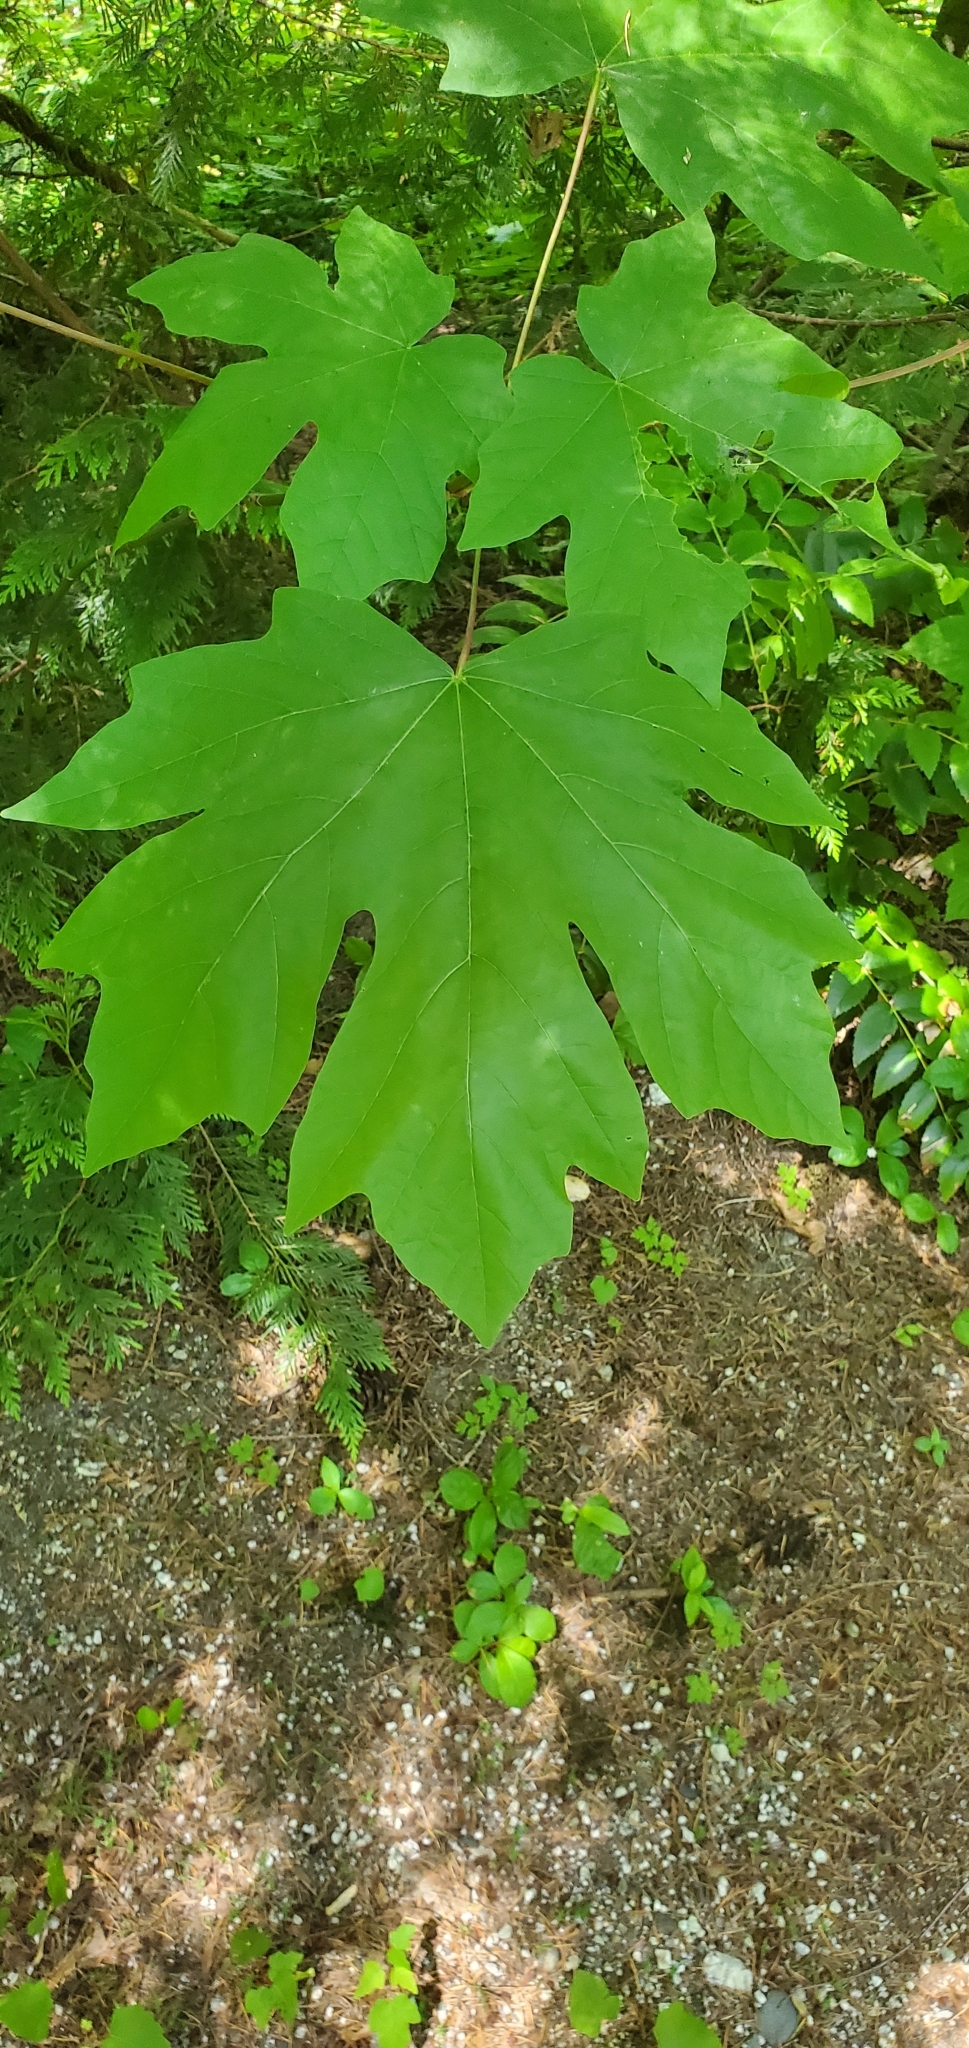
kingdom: Plantae
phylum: Tracheophyta
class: Magnoliopsida
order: Sapindales
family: Sapindaceae
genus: Acer
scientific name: Acer macrophyllum
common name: Oregon maple
